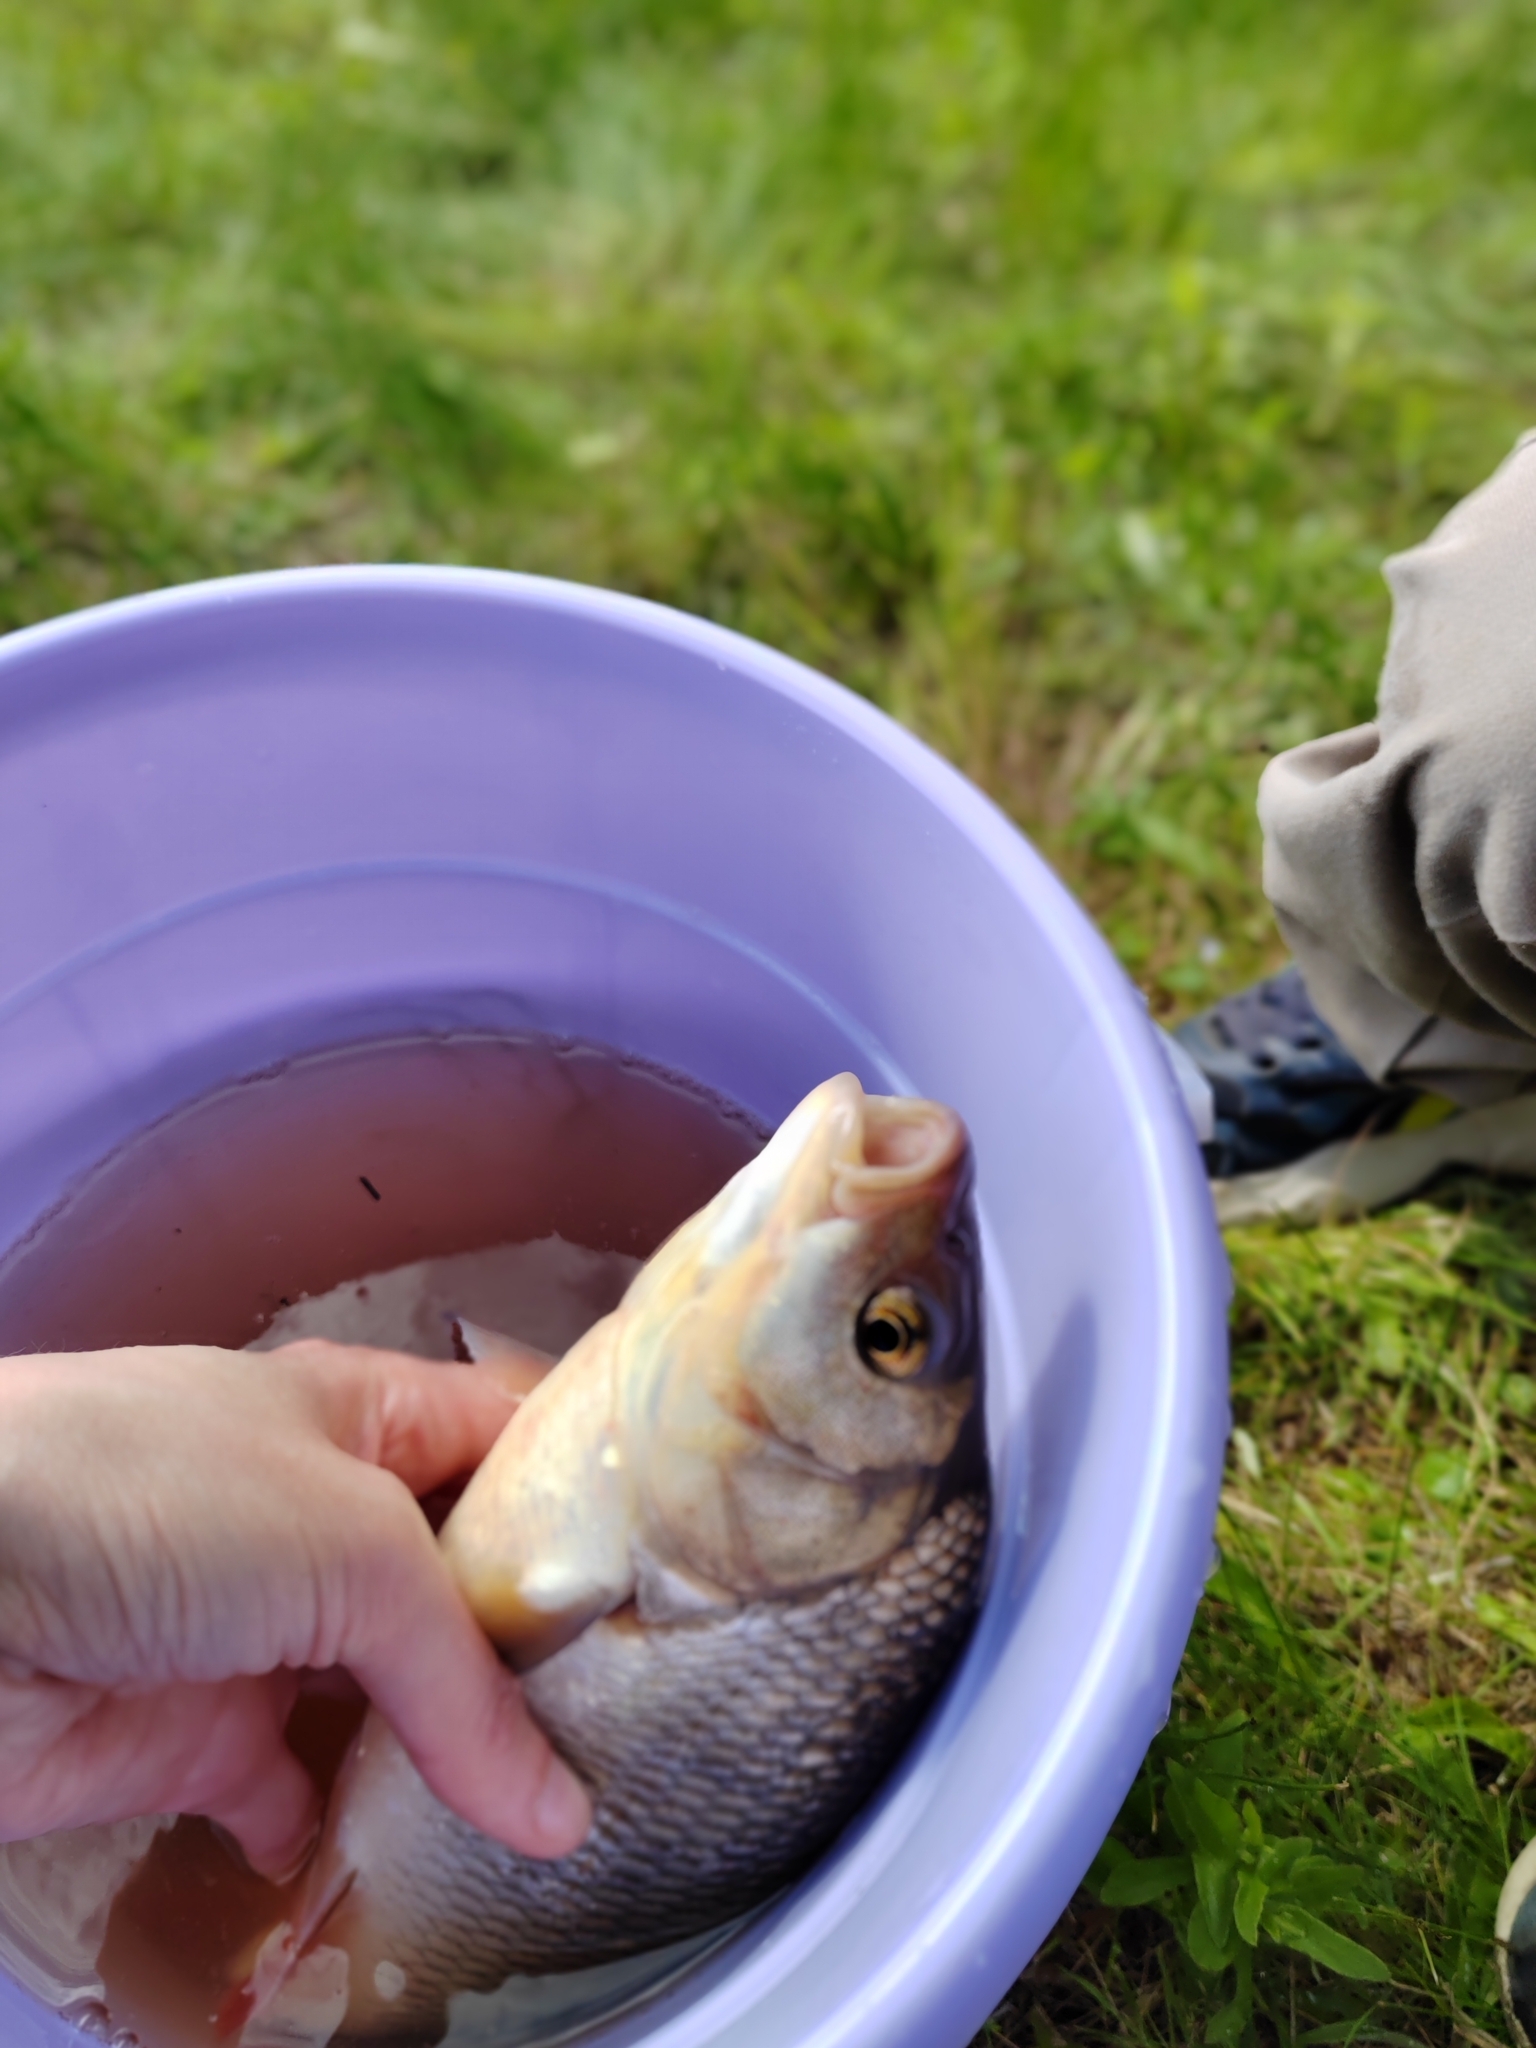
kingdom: Animalia
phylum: Chordata
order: Cypriniformes
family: Cyprinidae
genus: Leuciscus
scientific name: Leuciscus idus
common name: Ide
